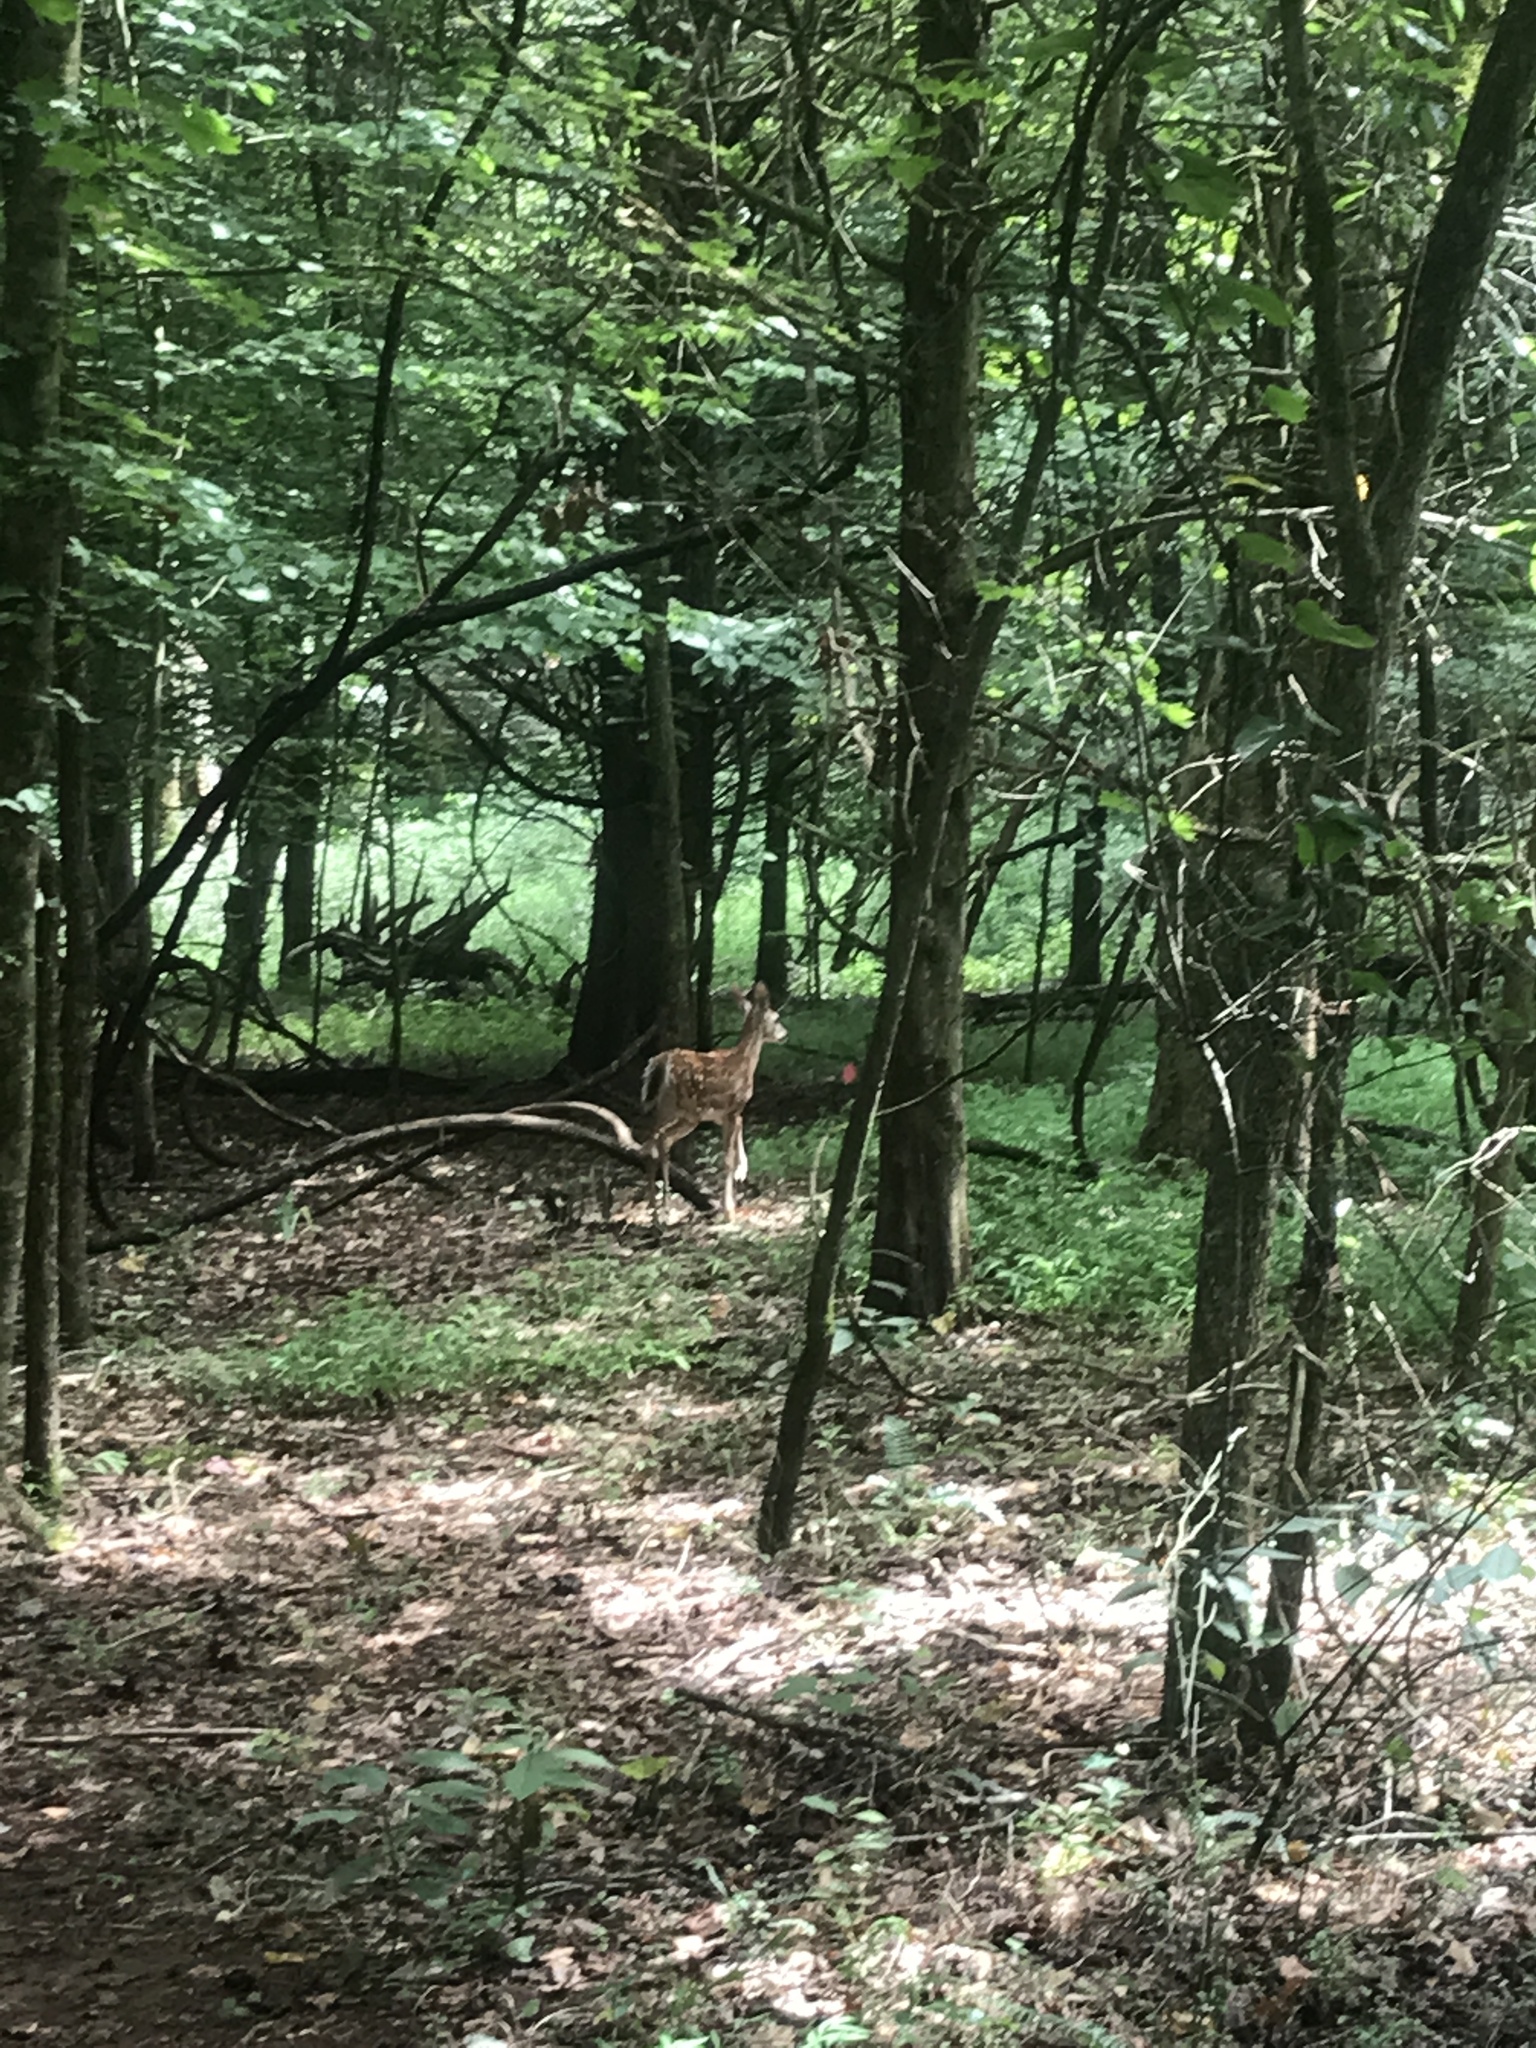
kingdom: Animalia
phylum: Chordata
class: Mammalia
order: Artiodactyla
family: Cervidae
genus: Odocoileus
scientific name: Odocoileus virginianus
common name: White-tailed deer
